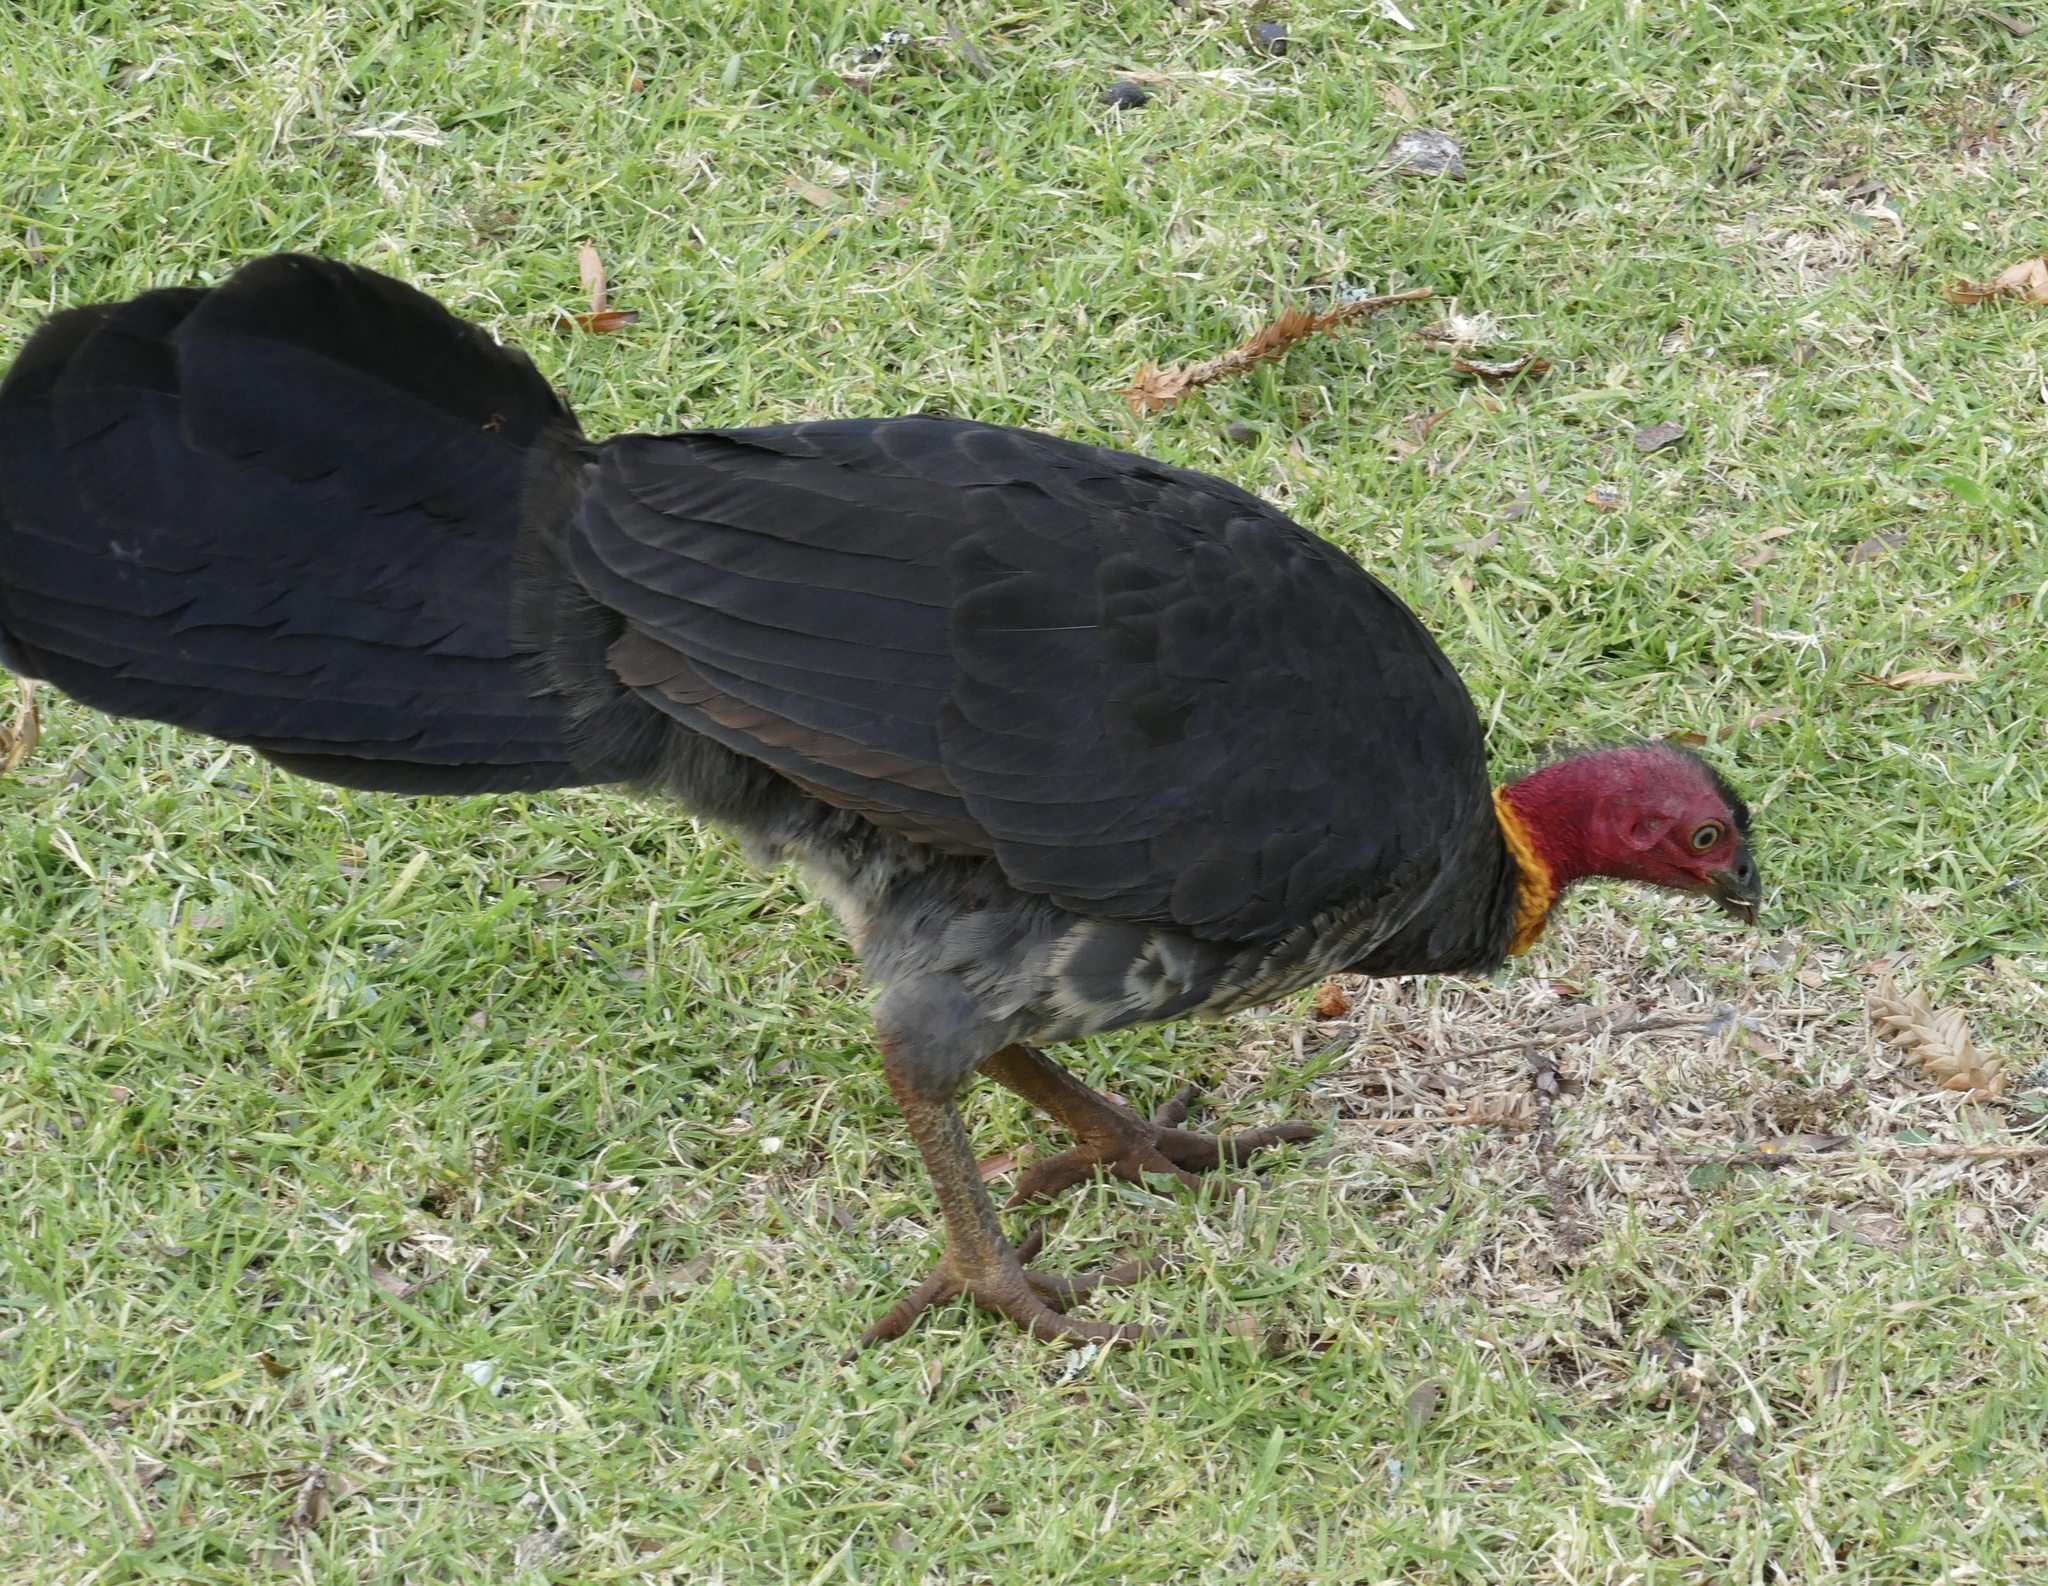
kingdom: Animalia
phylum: Chordata
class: Aves
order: Galliformes
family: Megapodiidae
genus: Alectura
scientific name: Alectura lathami
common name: Australian brushturkey
